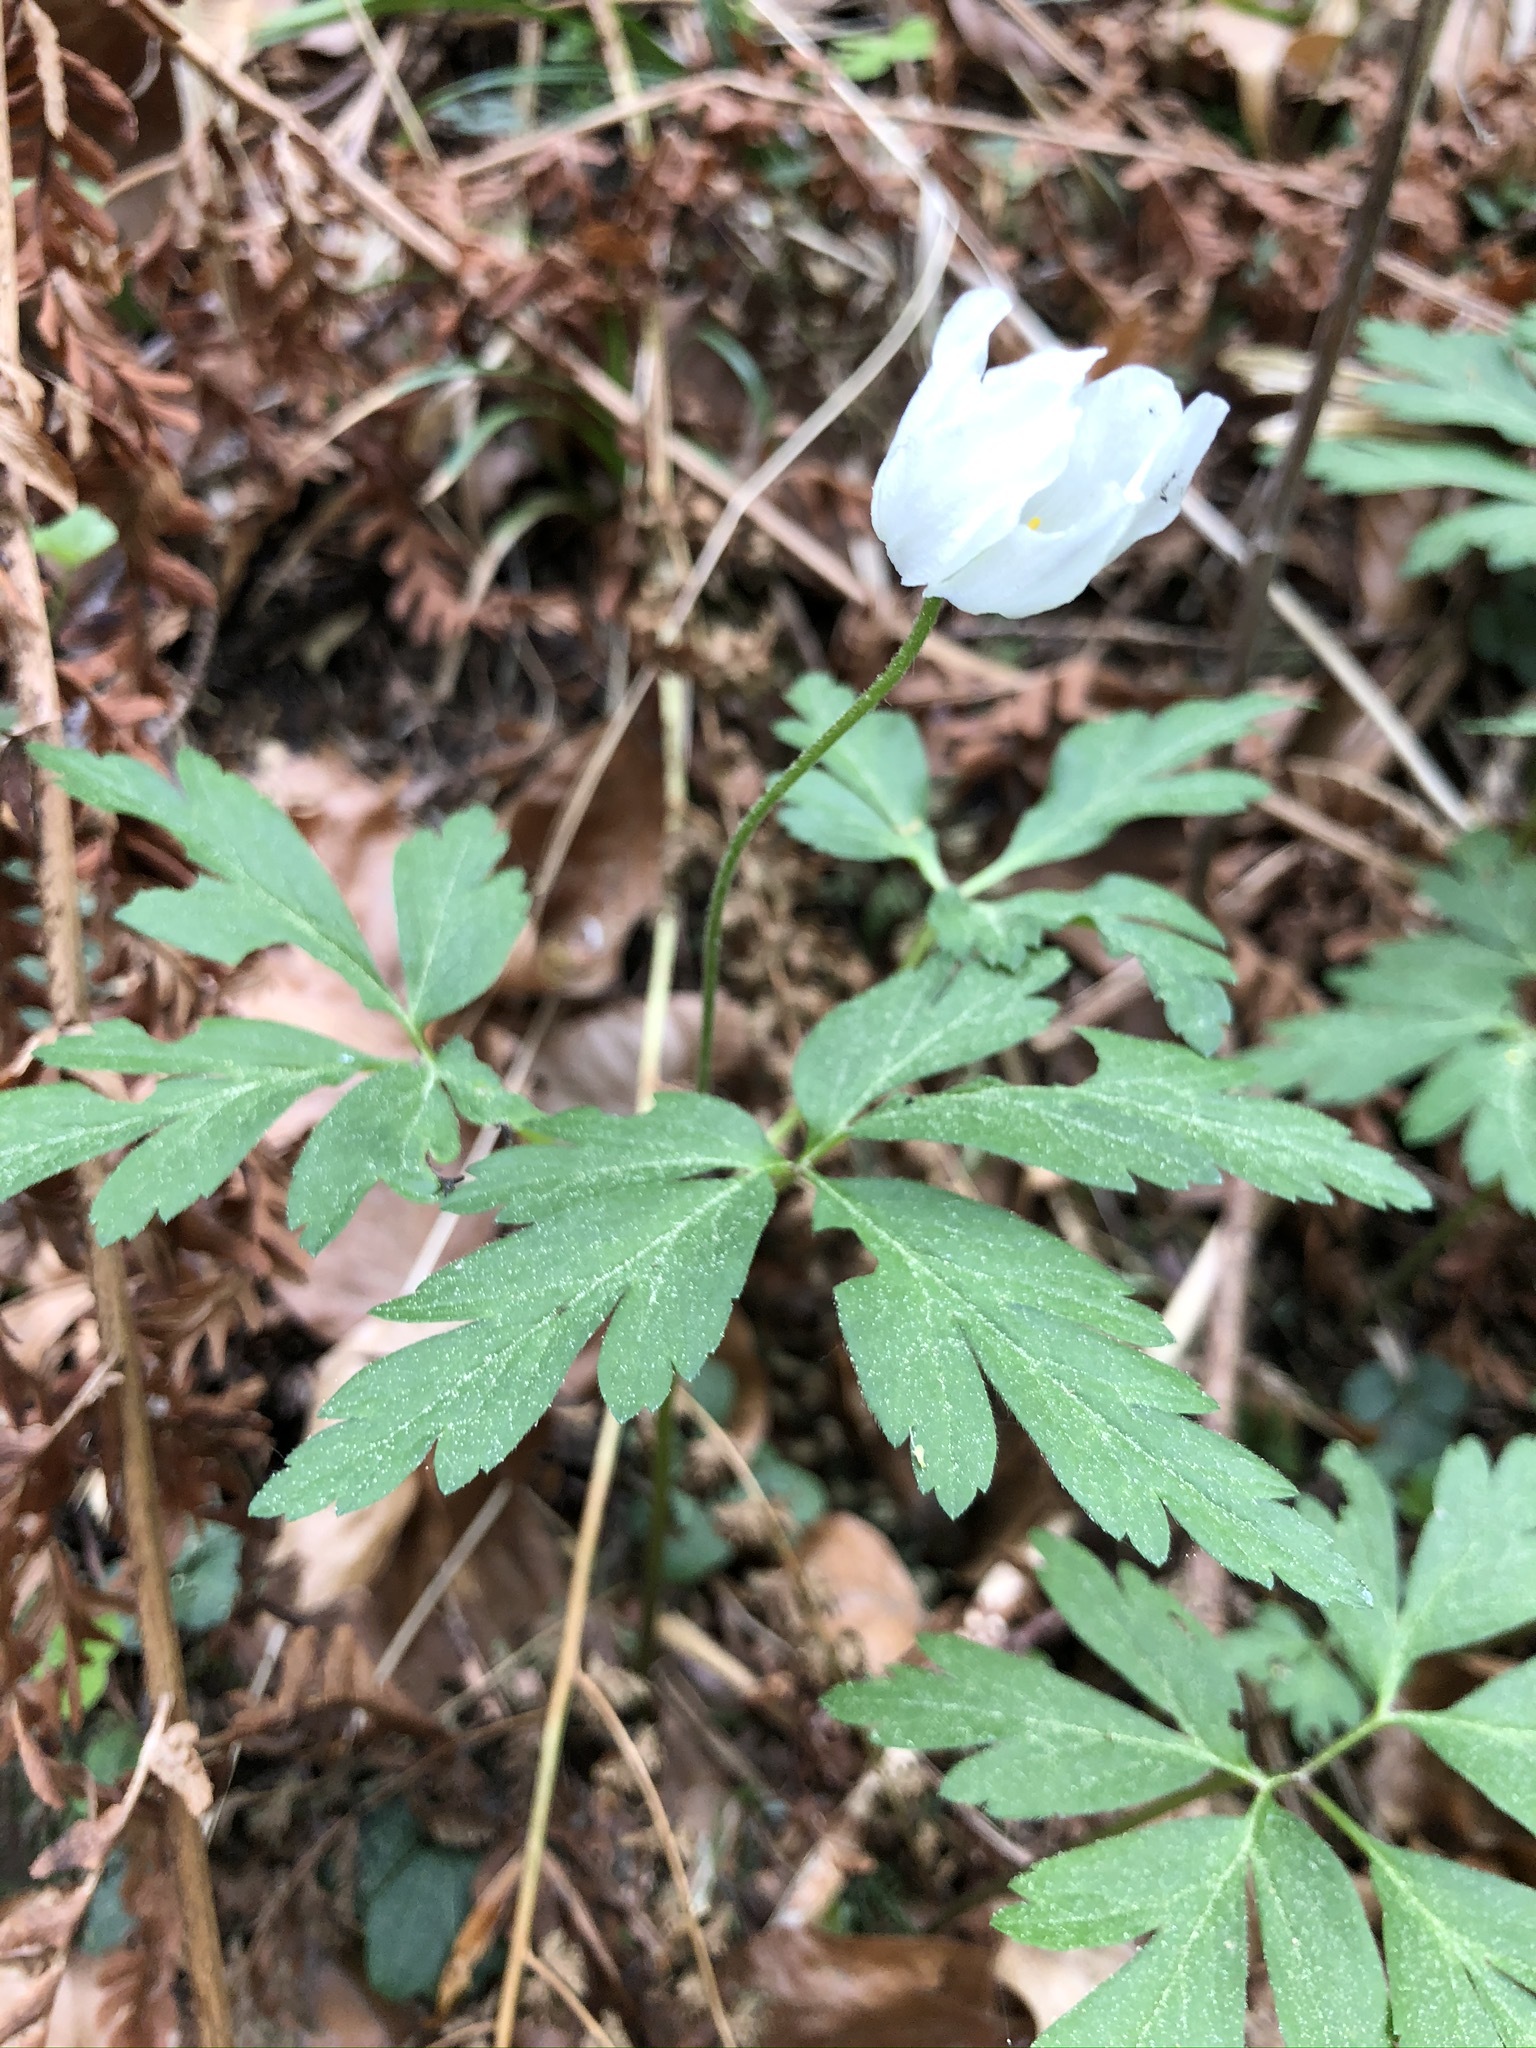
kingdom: Plantae
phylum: Tracheophyta
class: Magnoliopsida
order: Ranunculales
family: Ranunculaceae
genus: Anemone
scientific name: Anemone nemorosa
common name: Wood anemone
